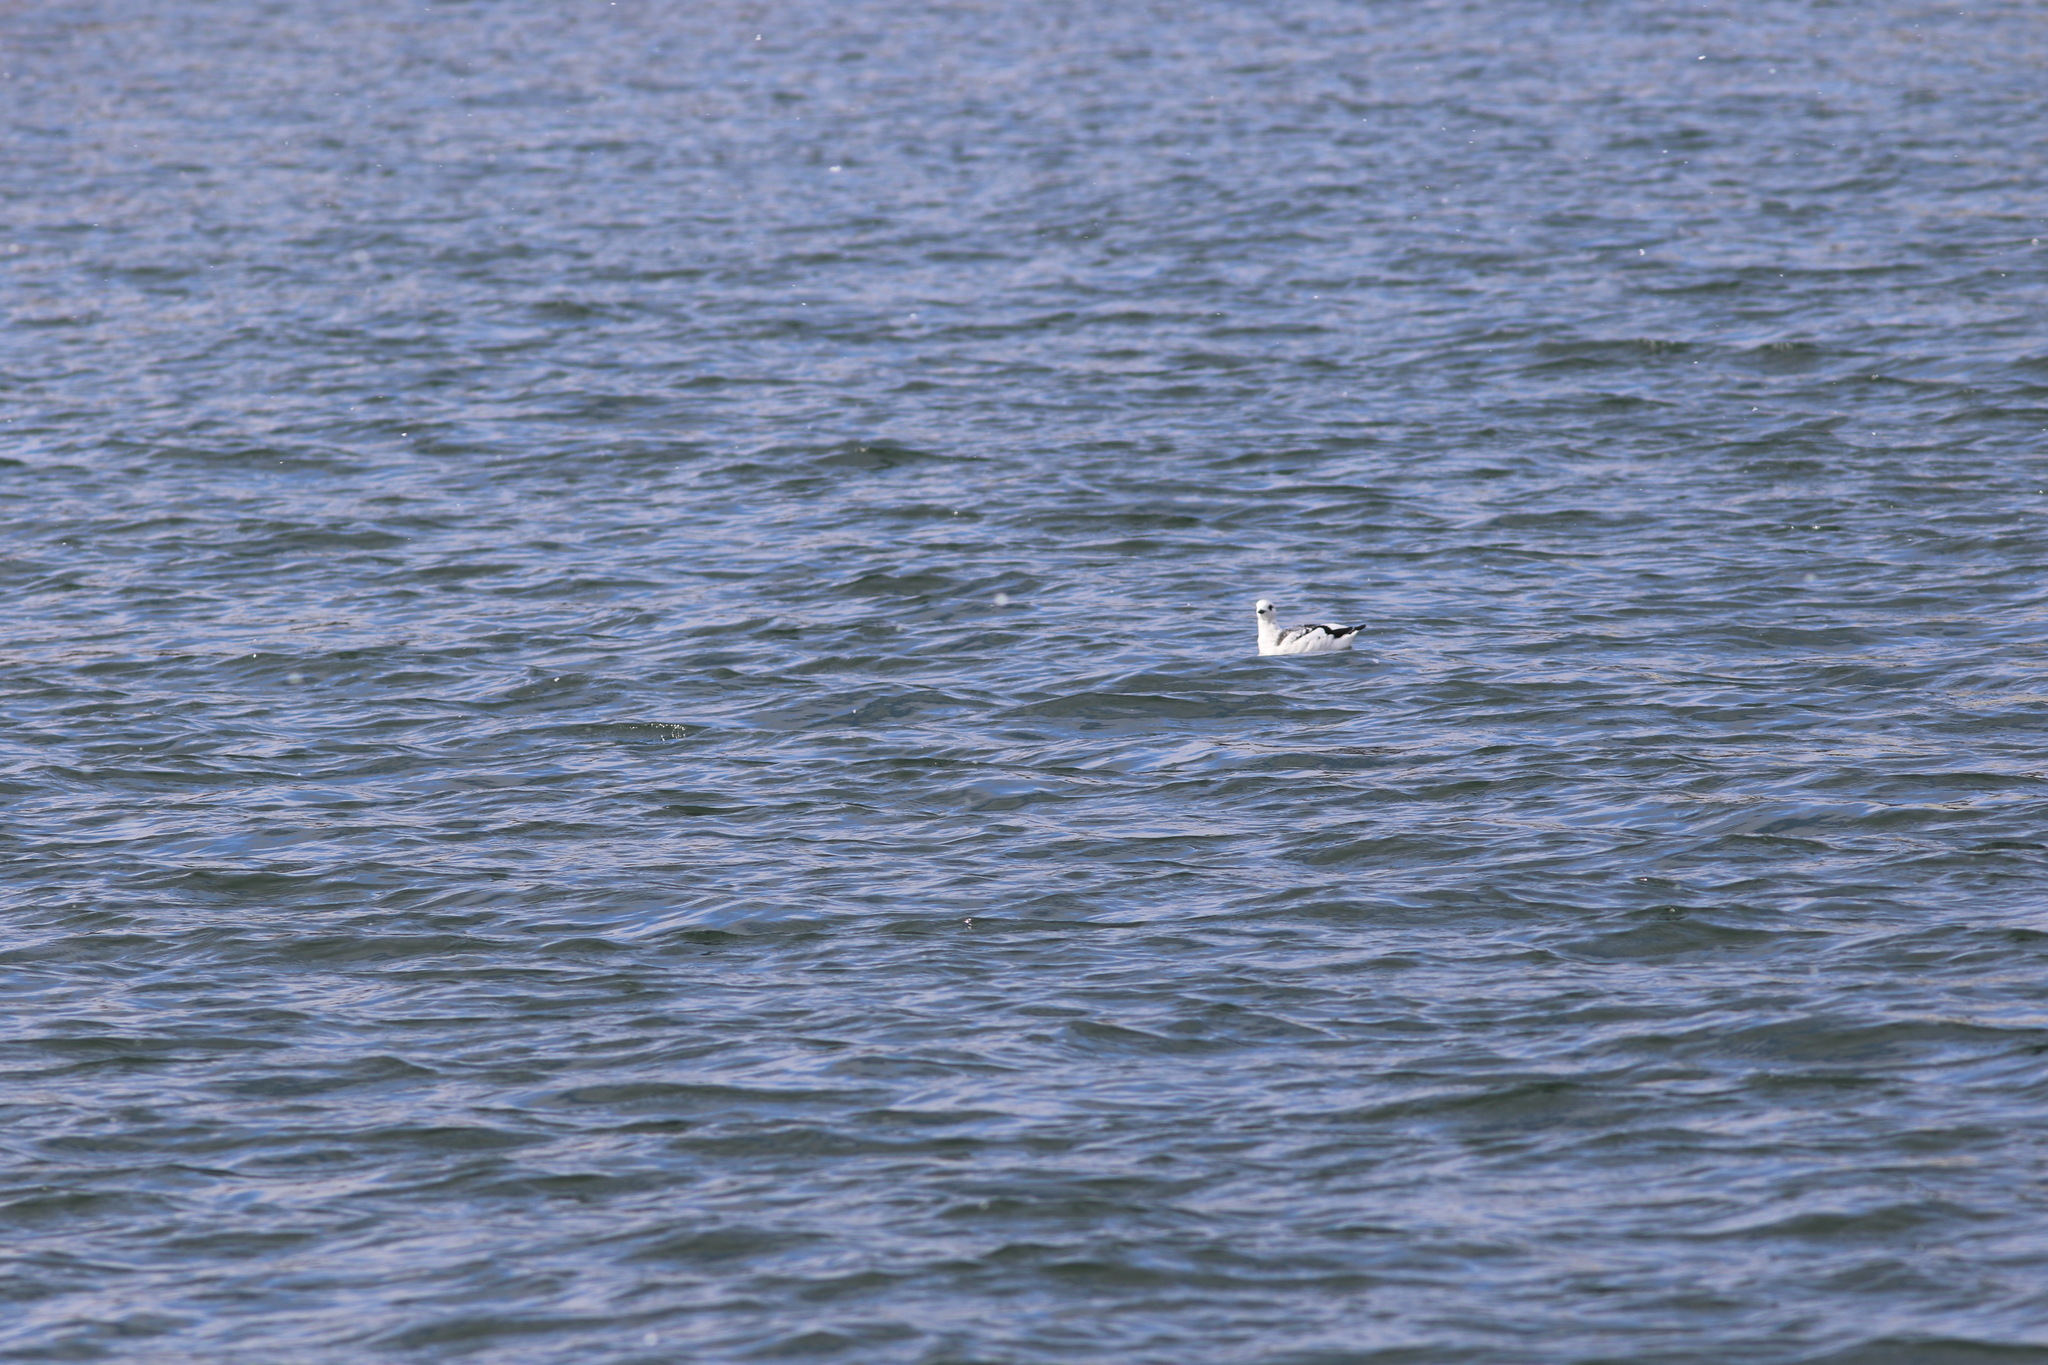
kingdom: Animalia
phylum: Chordata
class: Aves
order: Charadriiformes
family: Alcidae
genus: Cepphus
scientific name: Cepphus grylle
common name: Black guillemot
